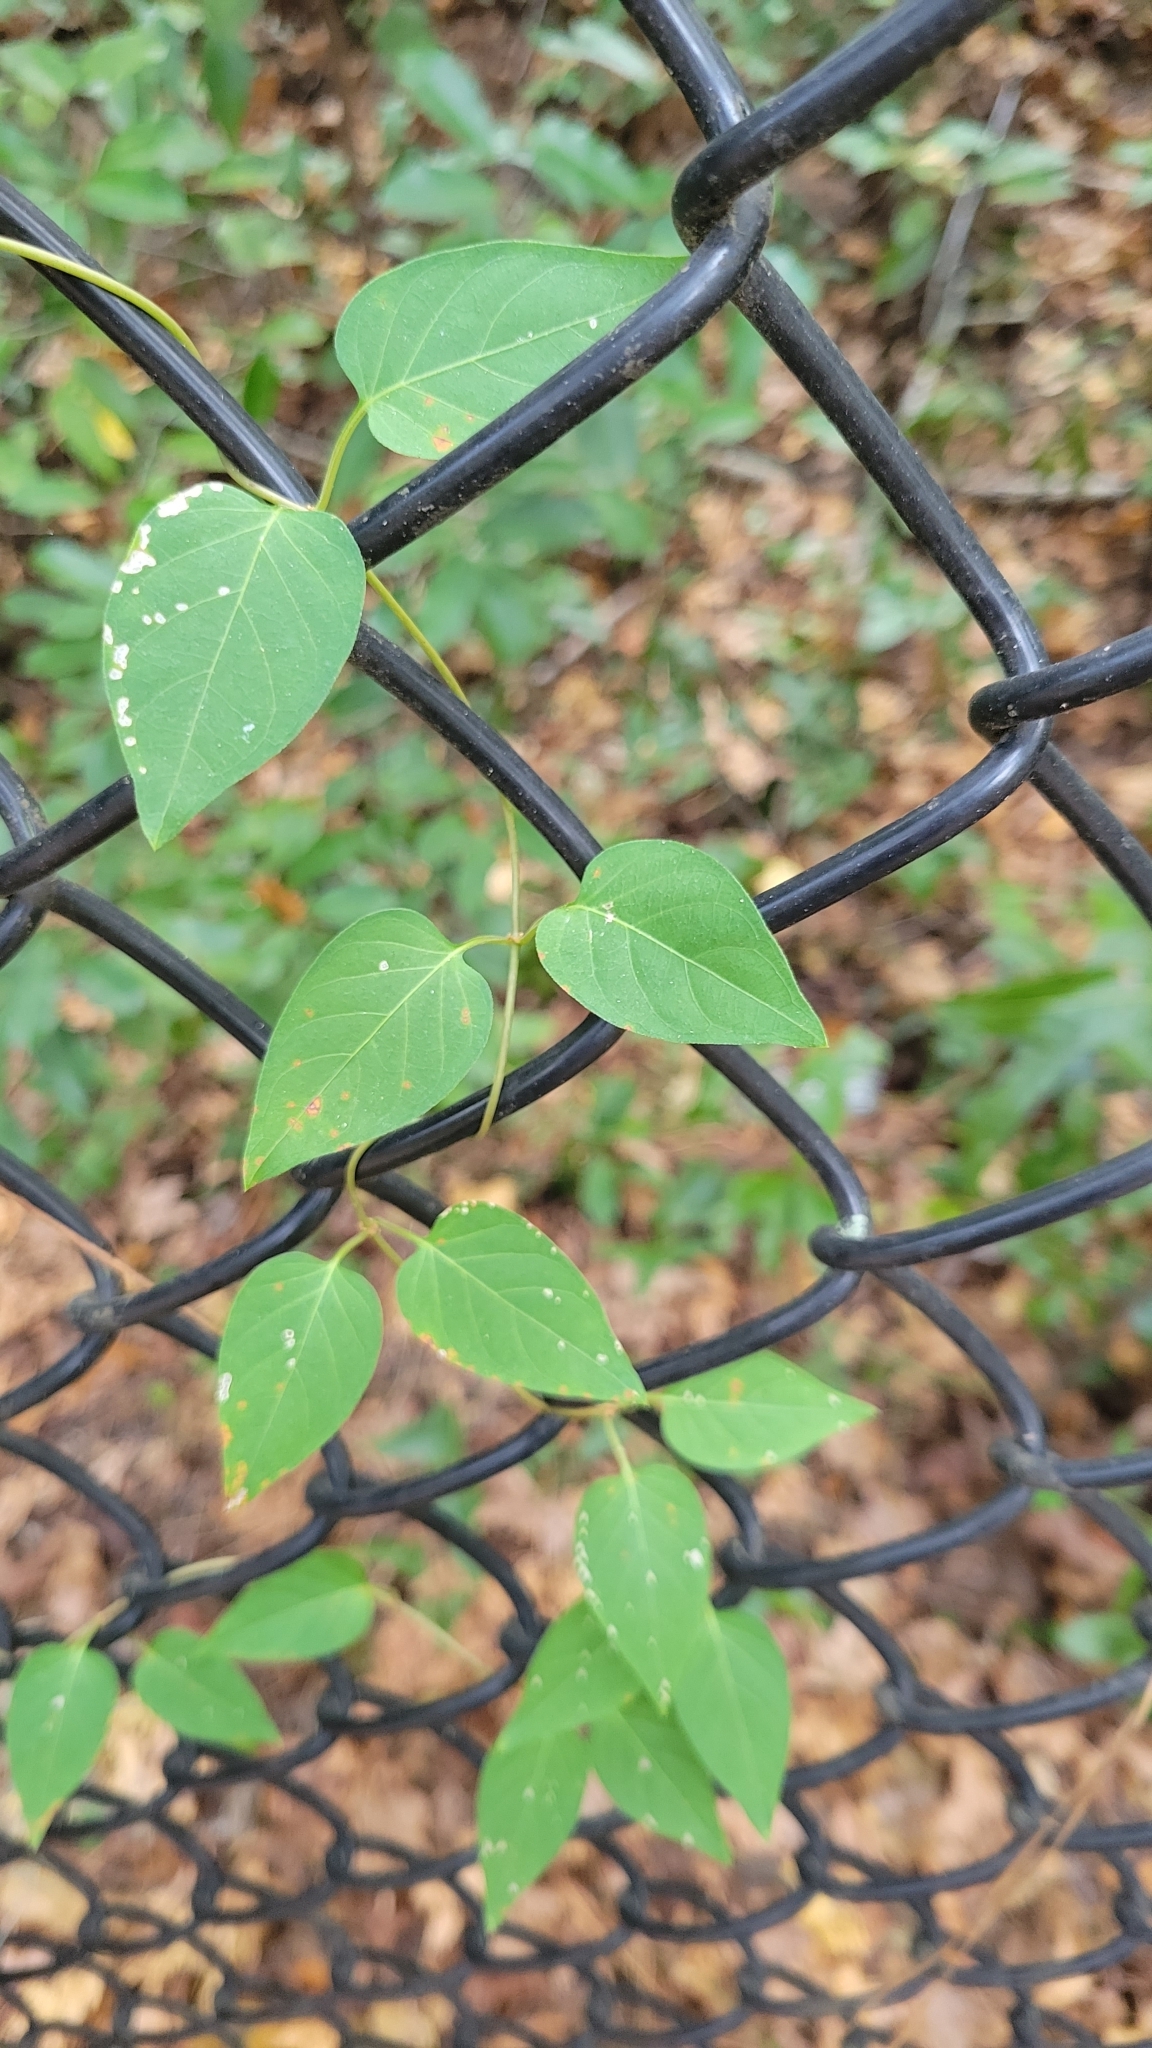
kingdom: Plantae
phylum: Tracheophyta
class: Magnoliopsida
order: Gentianales
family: Rubiaceae
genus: Paederia
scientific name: Paederia foetida
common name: Stinkvine
